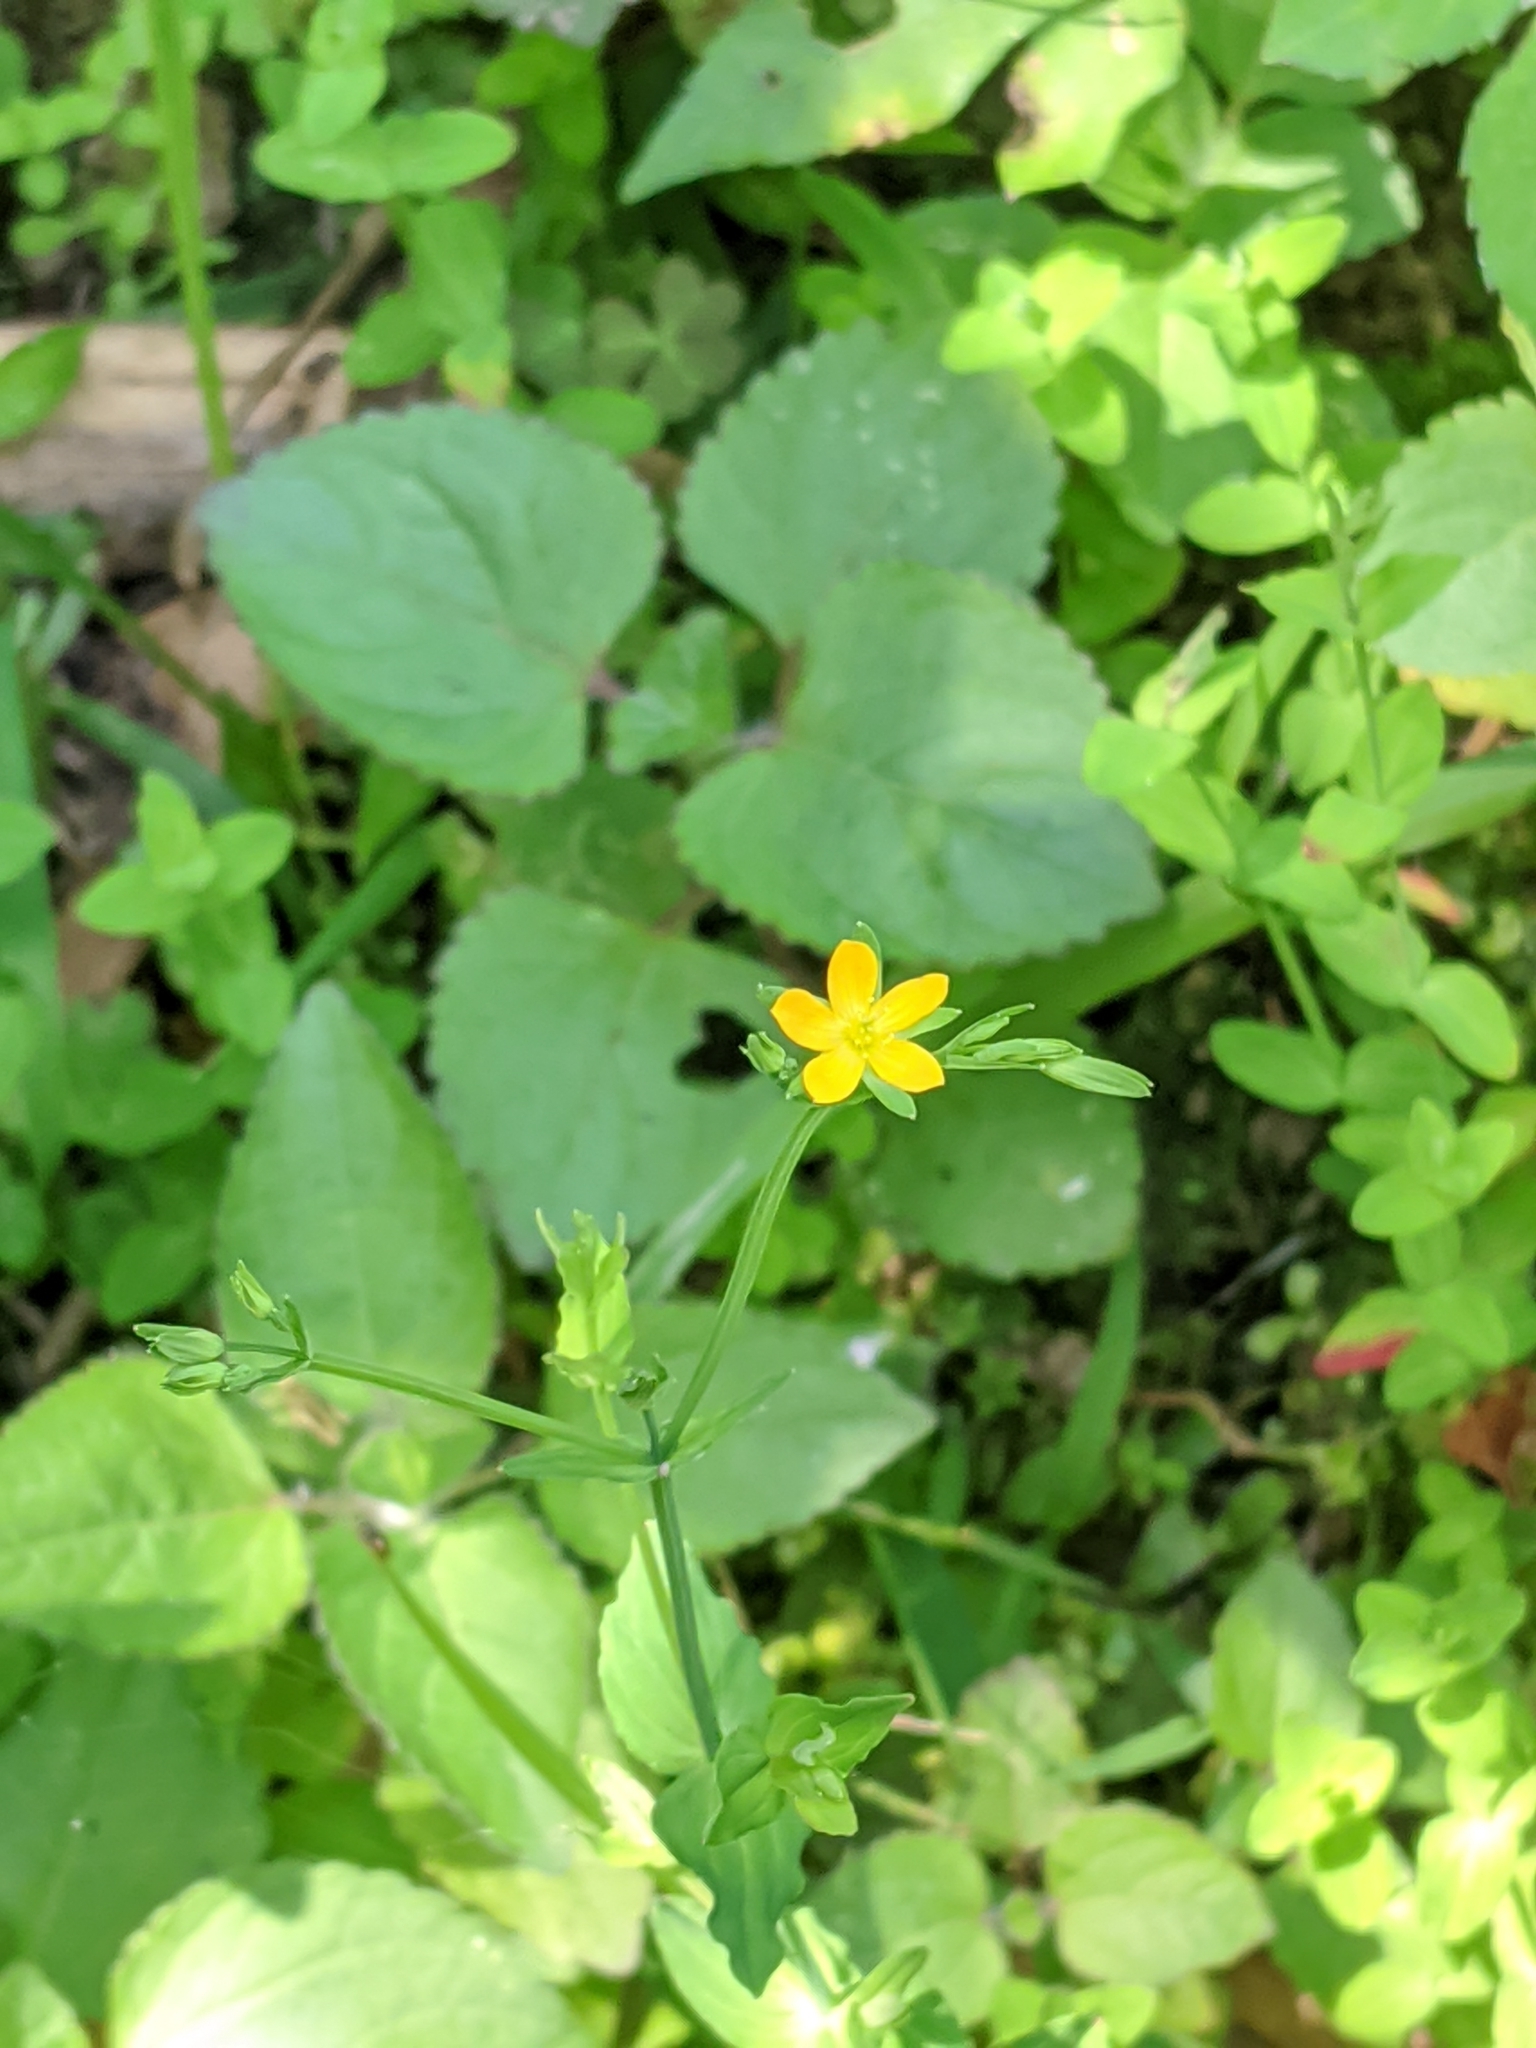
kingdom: Plantae
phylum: Tracheophyta
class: Magnoliopsida
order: Malpighiales
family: Hypericaceae
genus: Hypericum
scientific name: Hypericum japonicum
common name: Matted st. john's-wort
